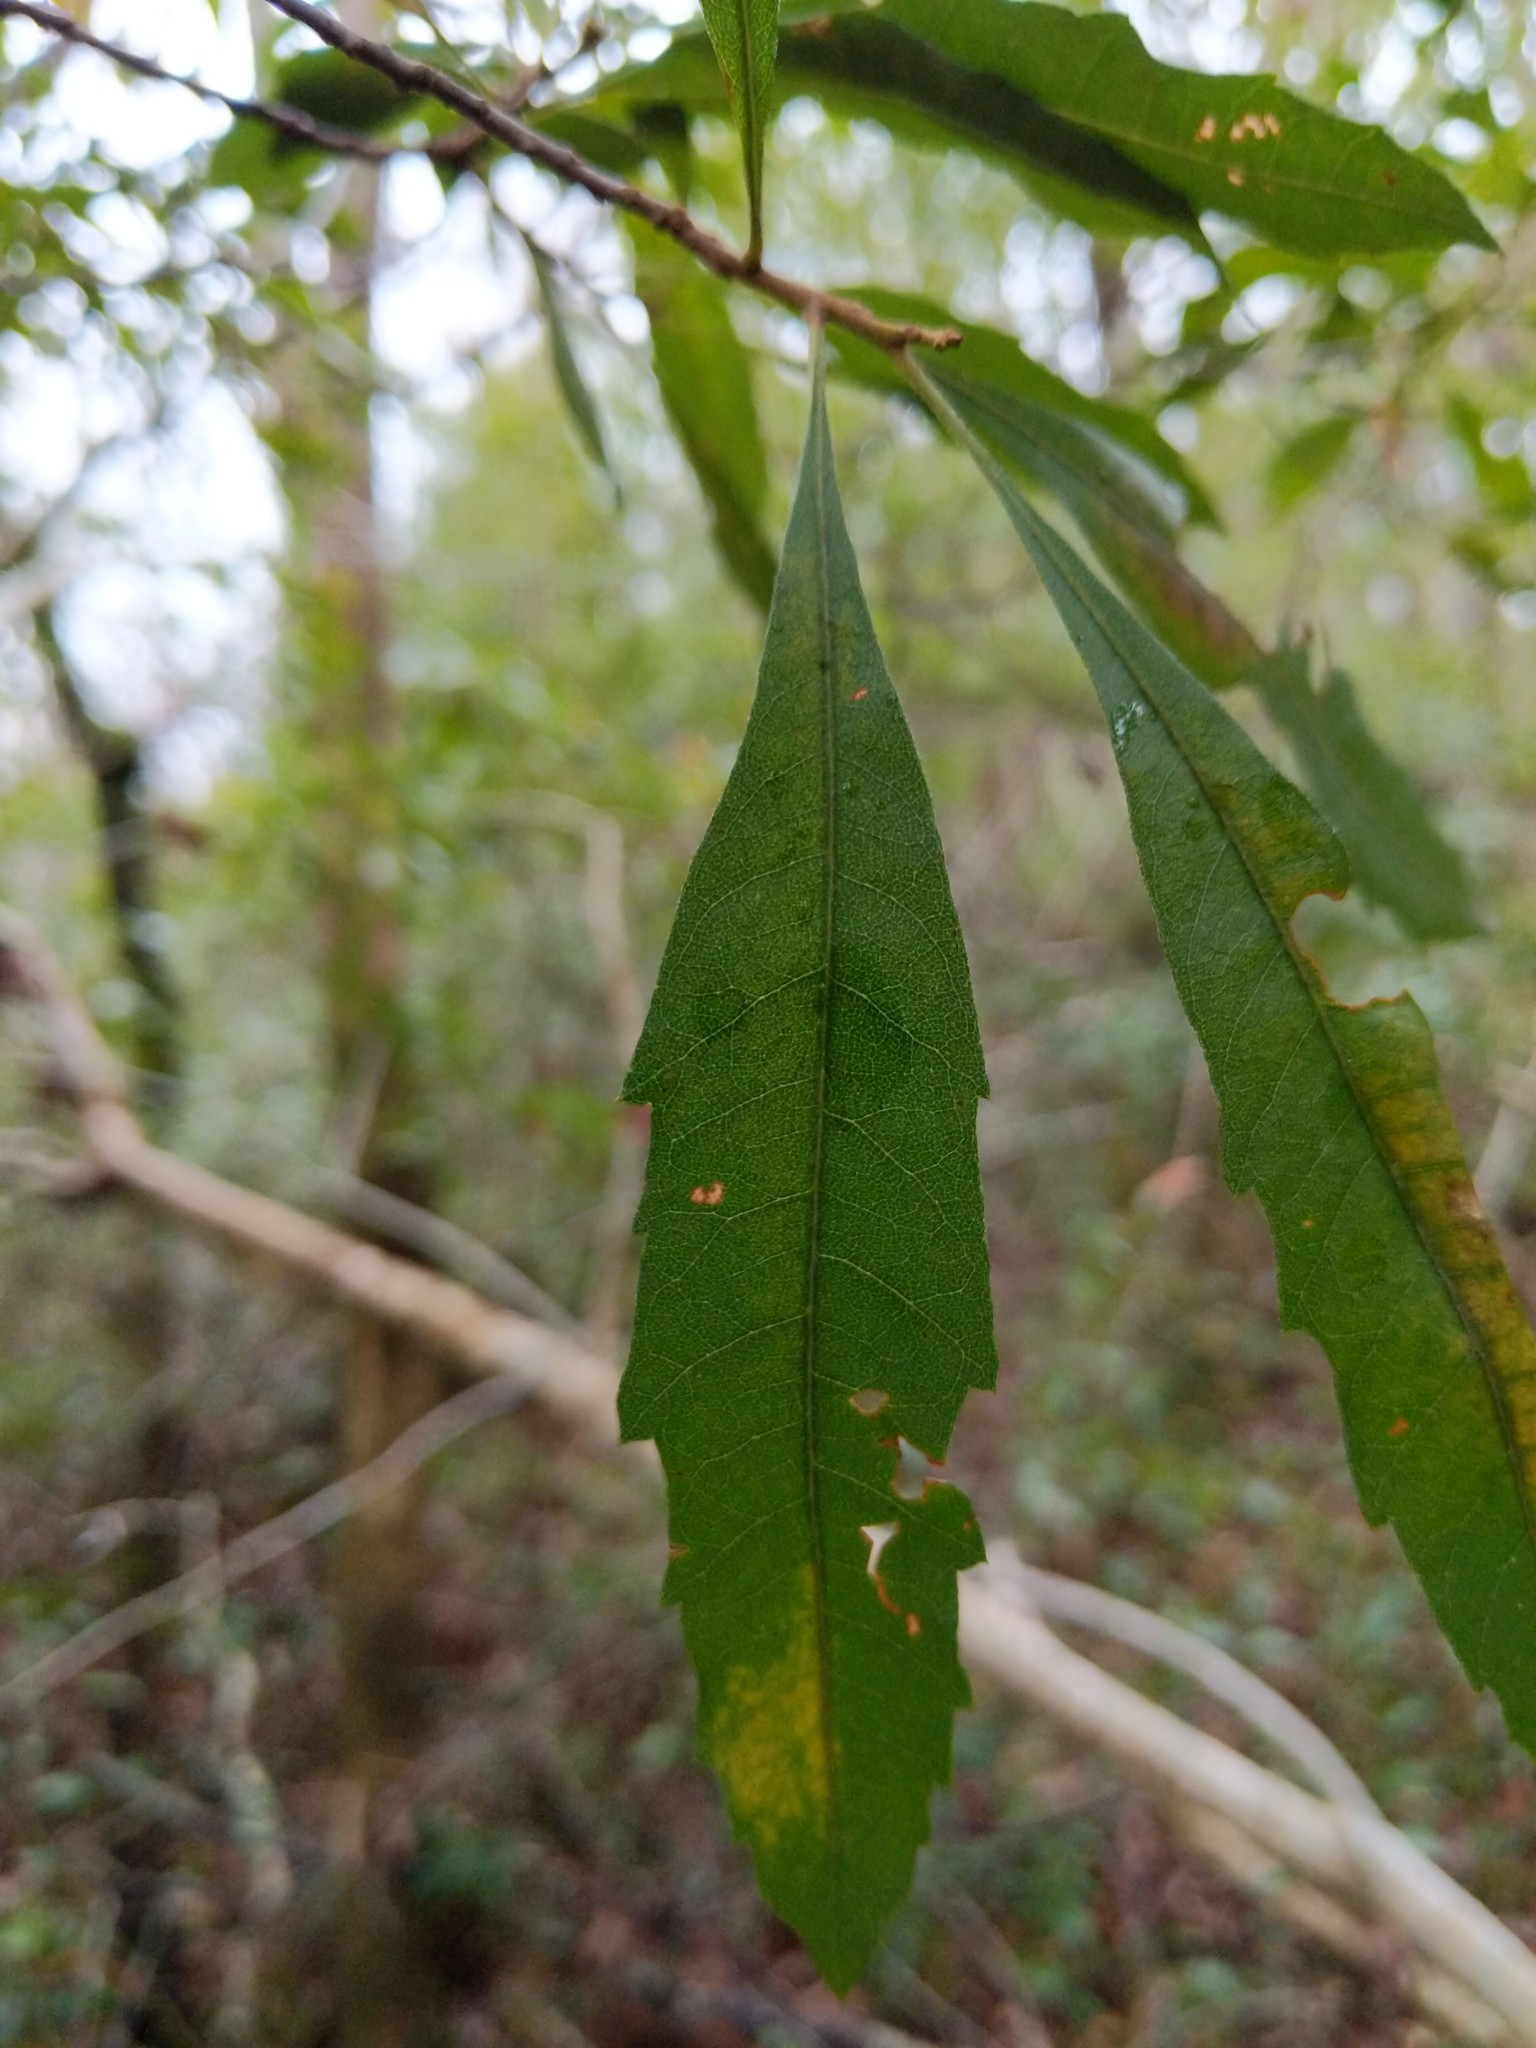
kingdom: Plantae
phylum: Tracheophyta
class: Magnoliopsida
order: Fagales
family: Myricaceae
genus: Morella
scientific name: Morella cerifera
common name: Wax myrtle
